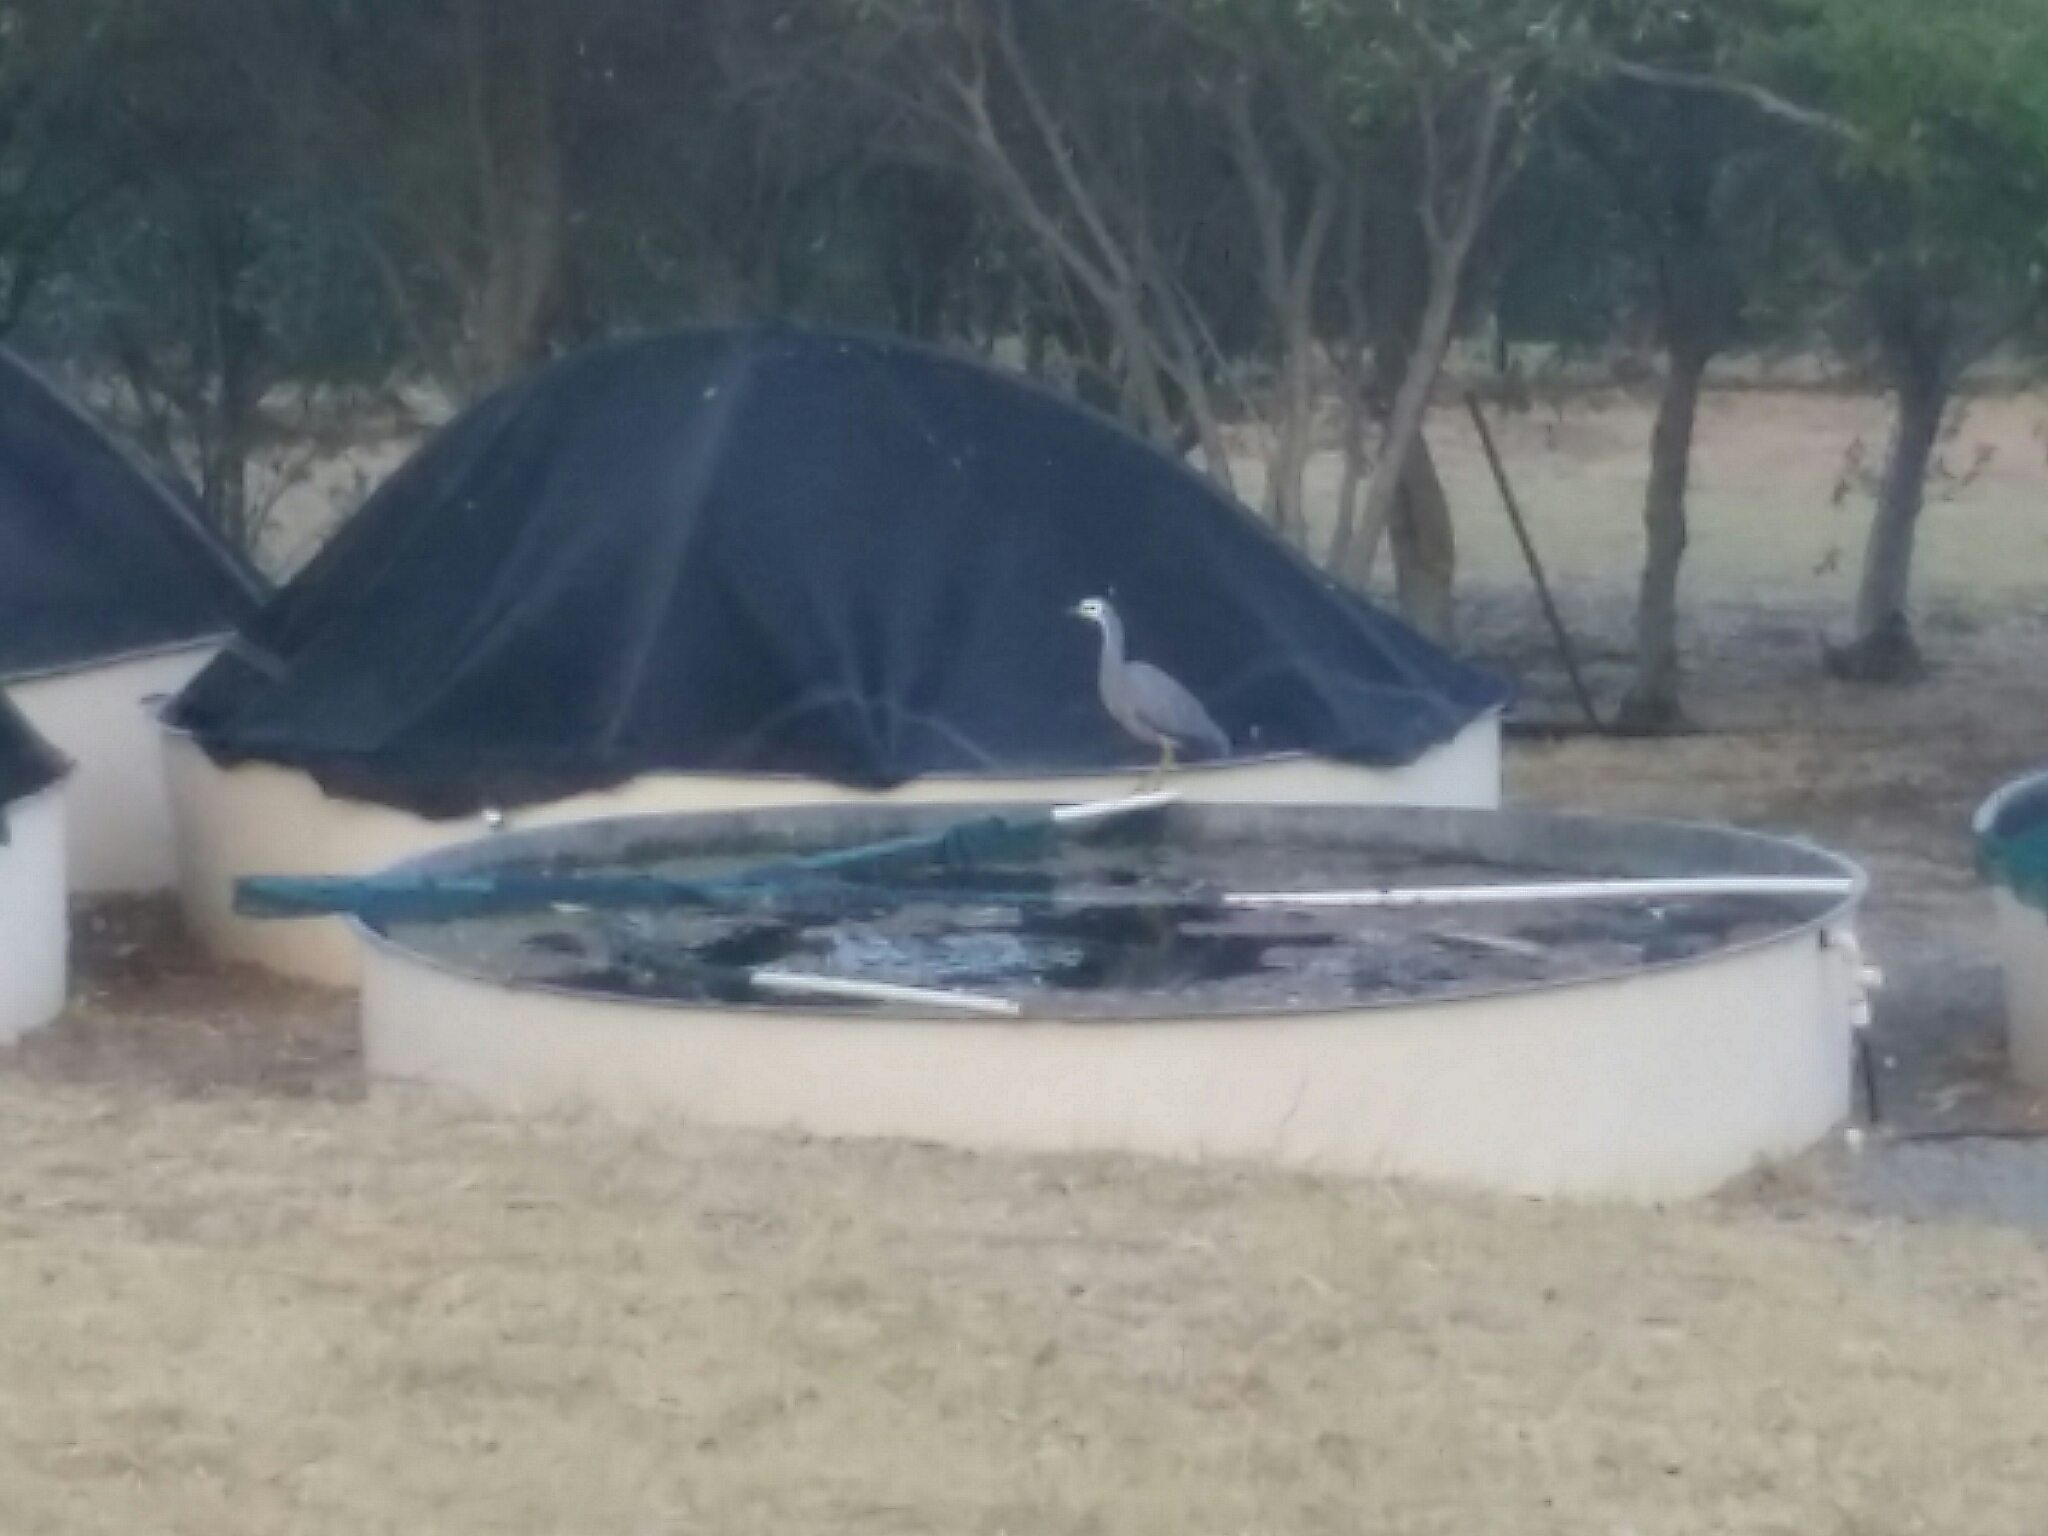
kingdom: Animalia
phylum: Chordata
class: Aves
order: Pelecaniformes
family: Ardeidae
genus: Egretta
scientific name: Egretta novaehollandiae
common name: White-faced heron
